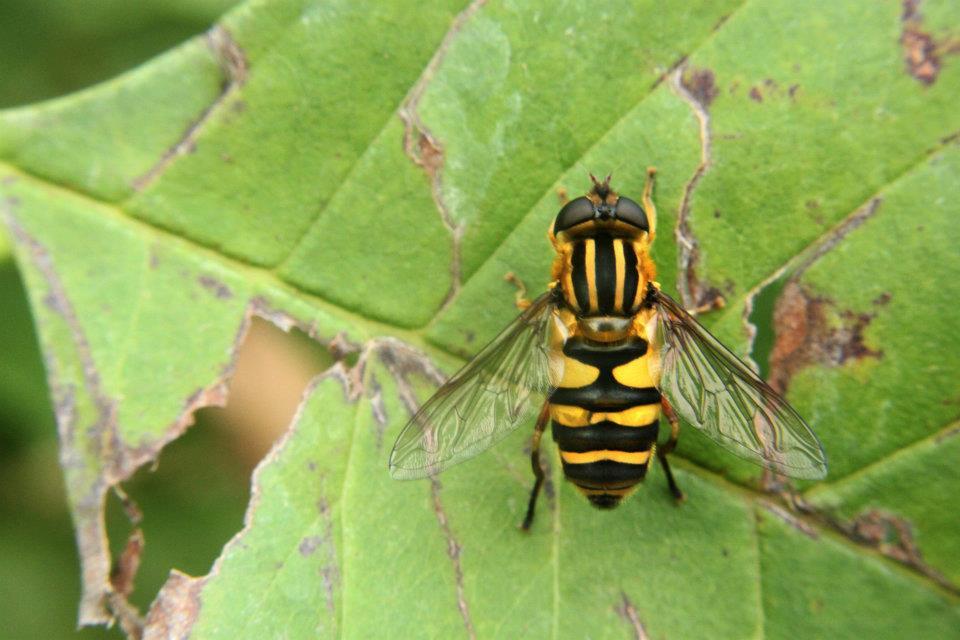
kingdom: Animalia
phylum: Arthropoda
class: Insecta
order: Diptera
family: Syrphidae
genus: Helophilus
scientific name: Helophilus fasciatus
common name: Narrow-headed marsh fly
